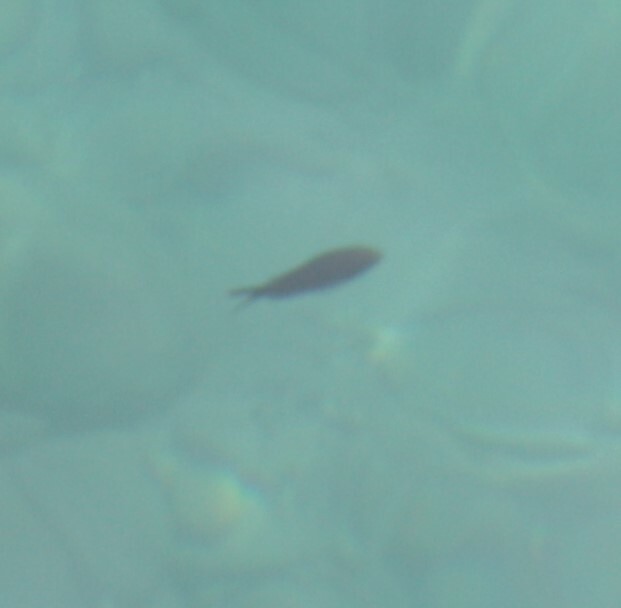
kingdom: Animalia
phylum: Chordata
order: Perciformes
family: Pomacentridae
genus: Chromis
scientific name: Chromis chromis
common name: Damselfish
